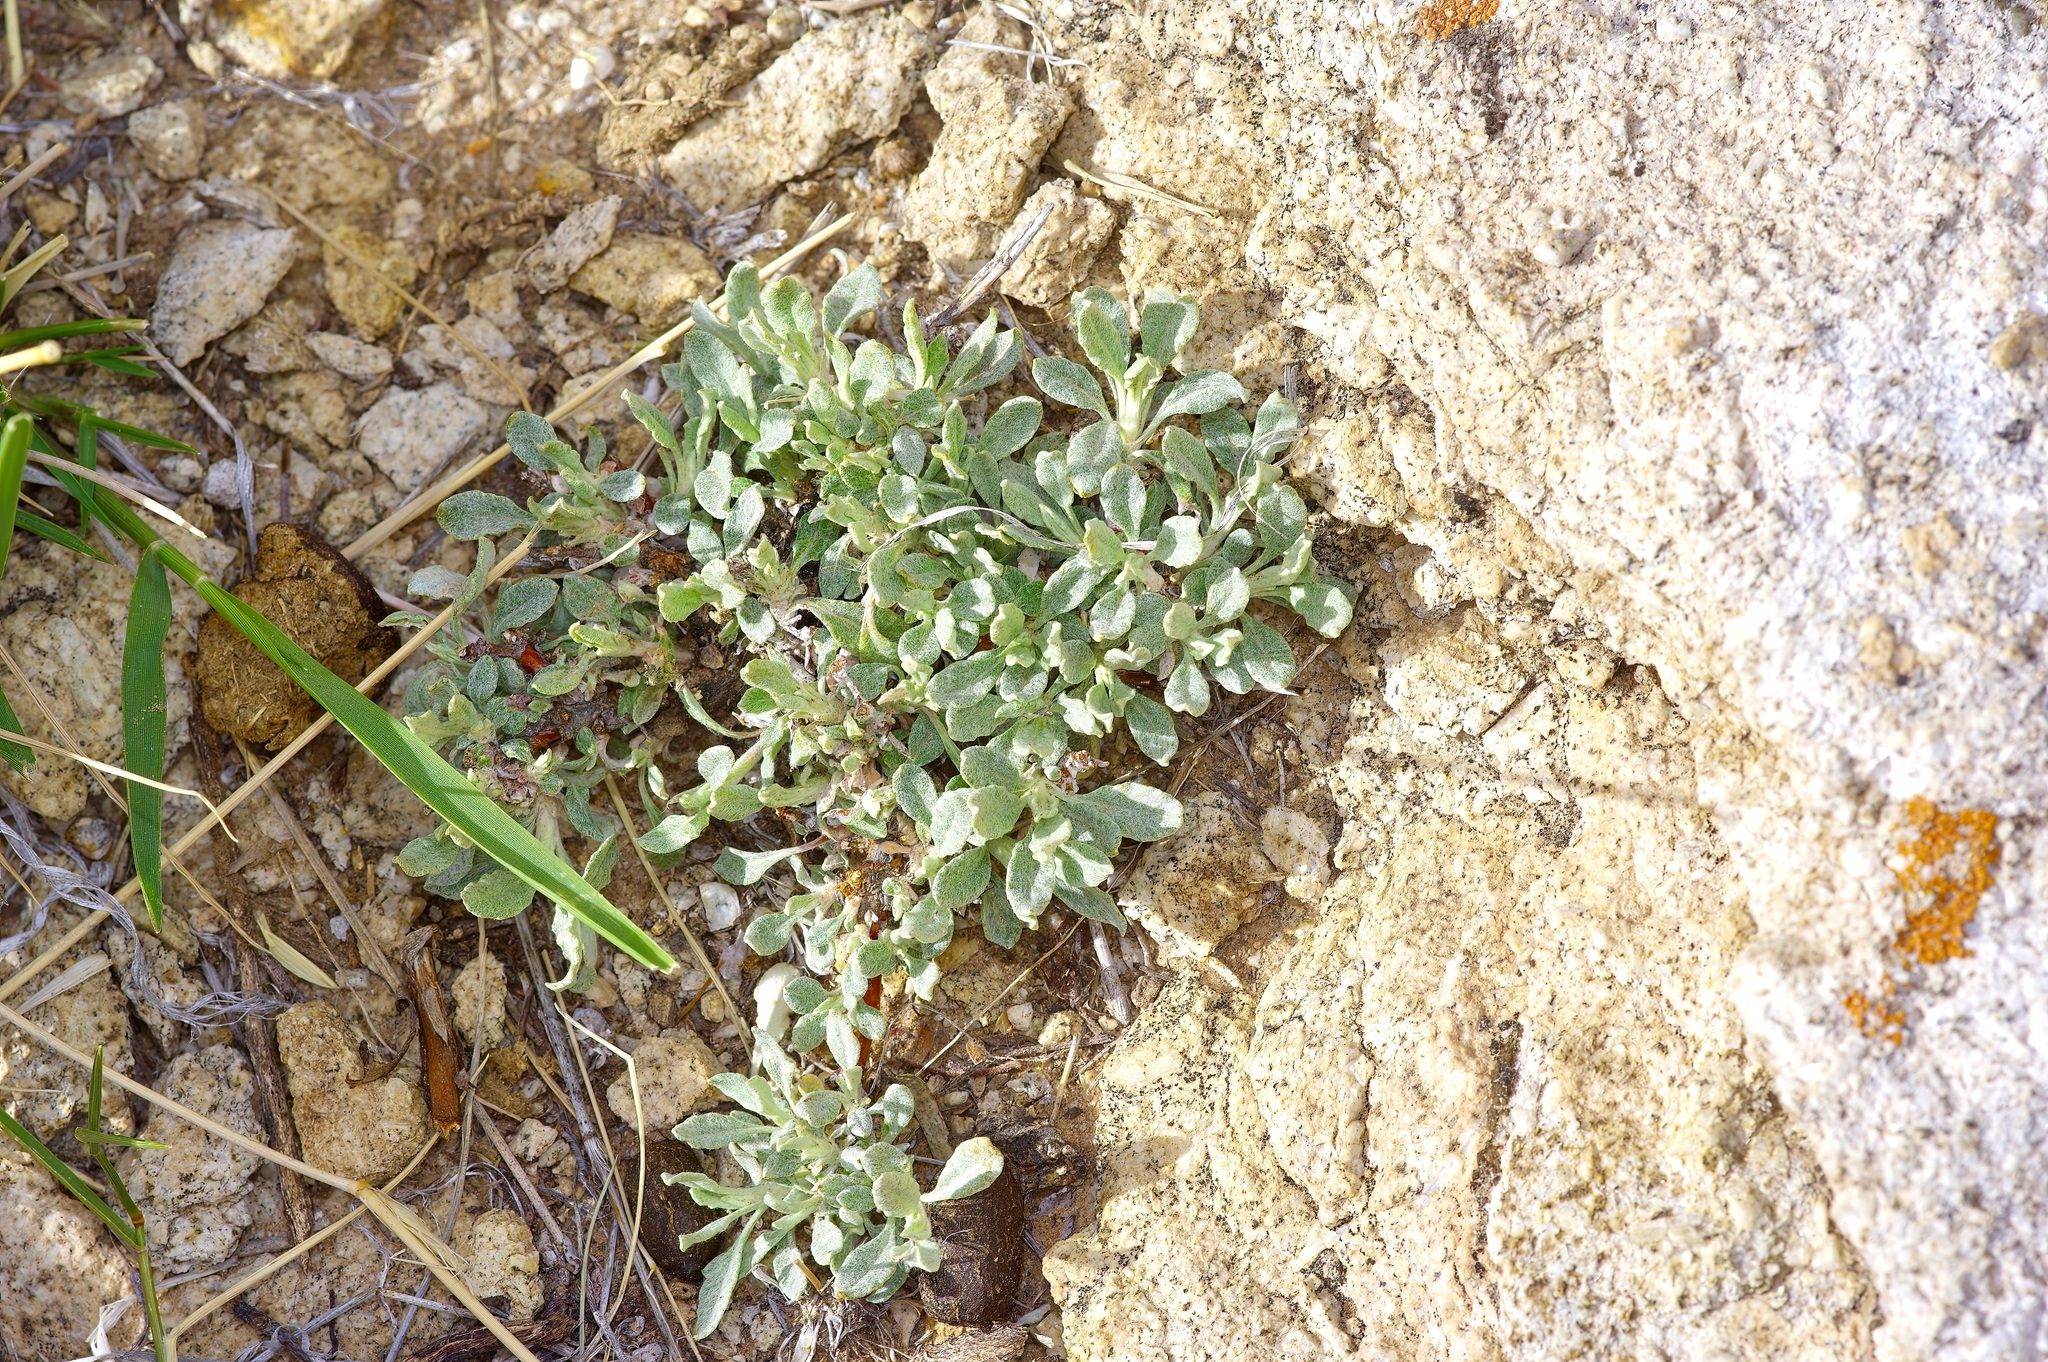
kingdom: Plantae
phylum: Tracheophyta
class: Magnoliopsida
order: Caryophyllales
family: Polygonaceae
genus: Eriogonum
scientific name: Eriogonum tenellum
